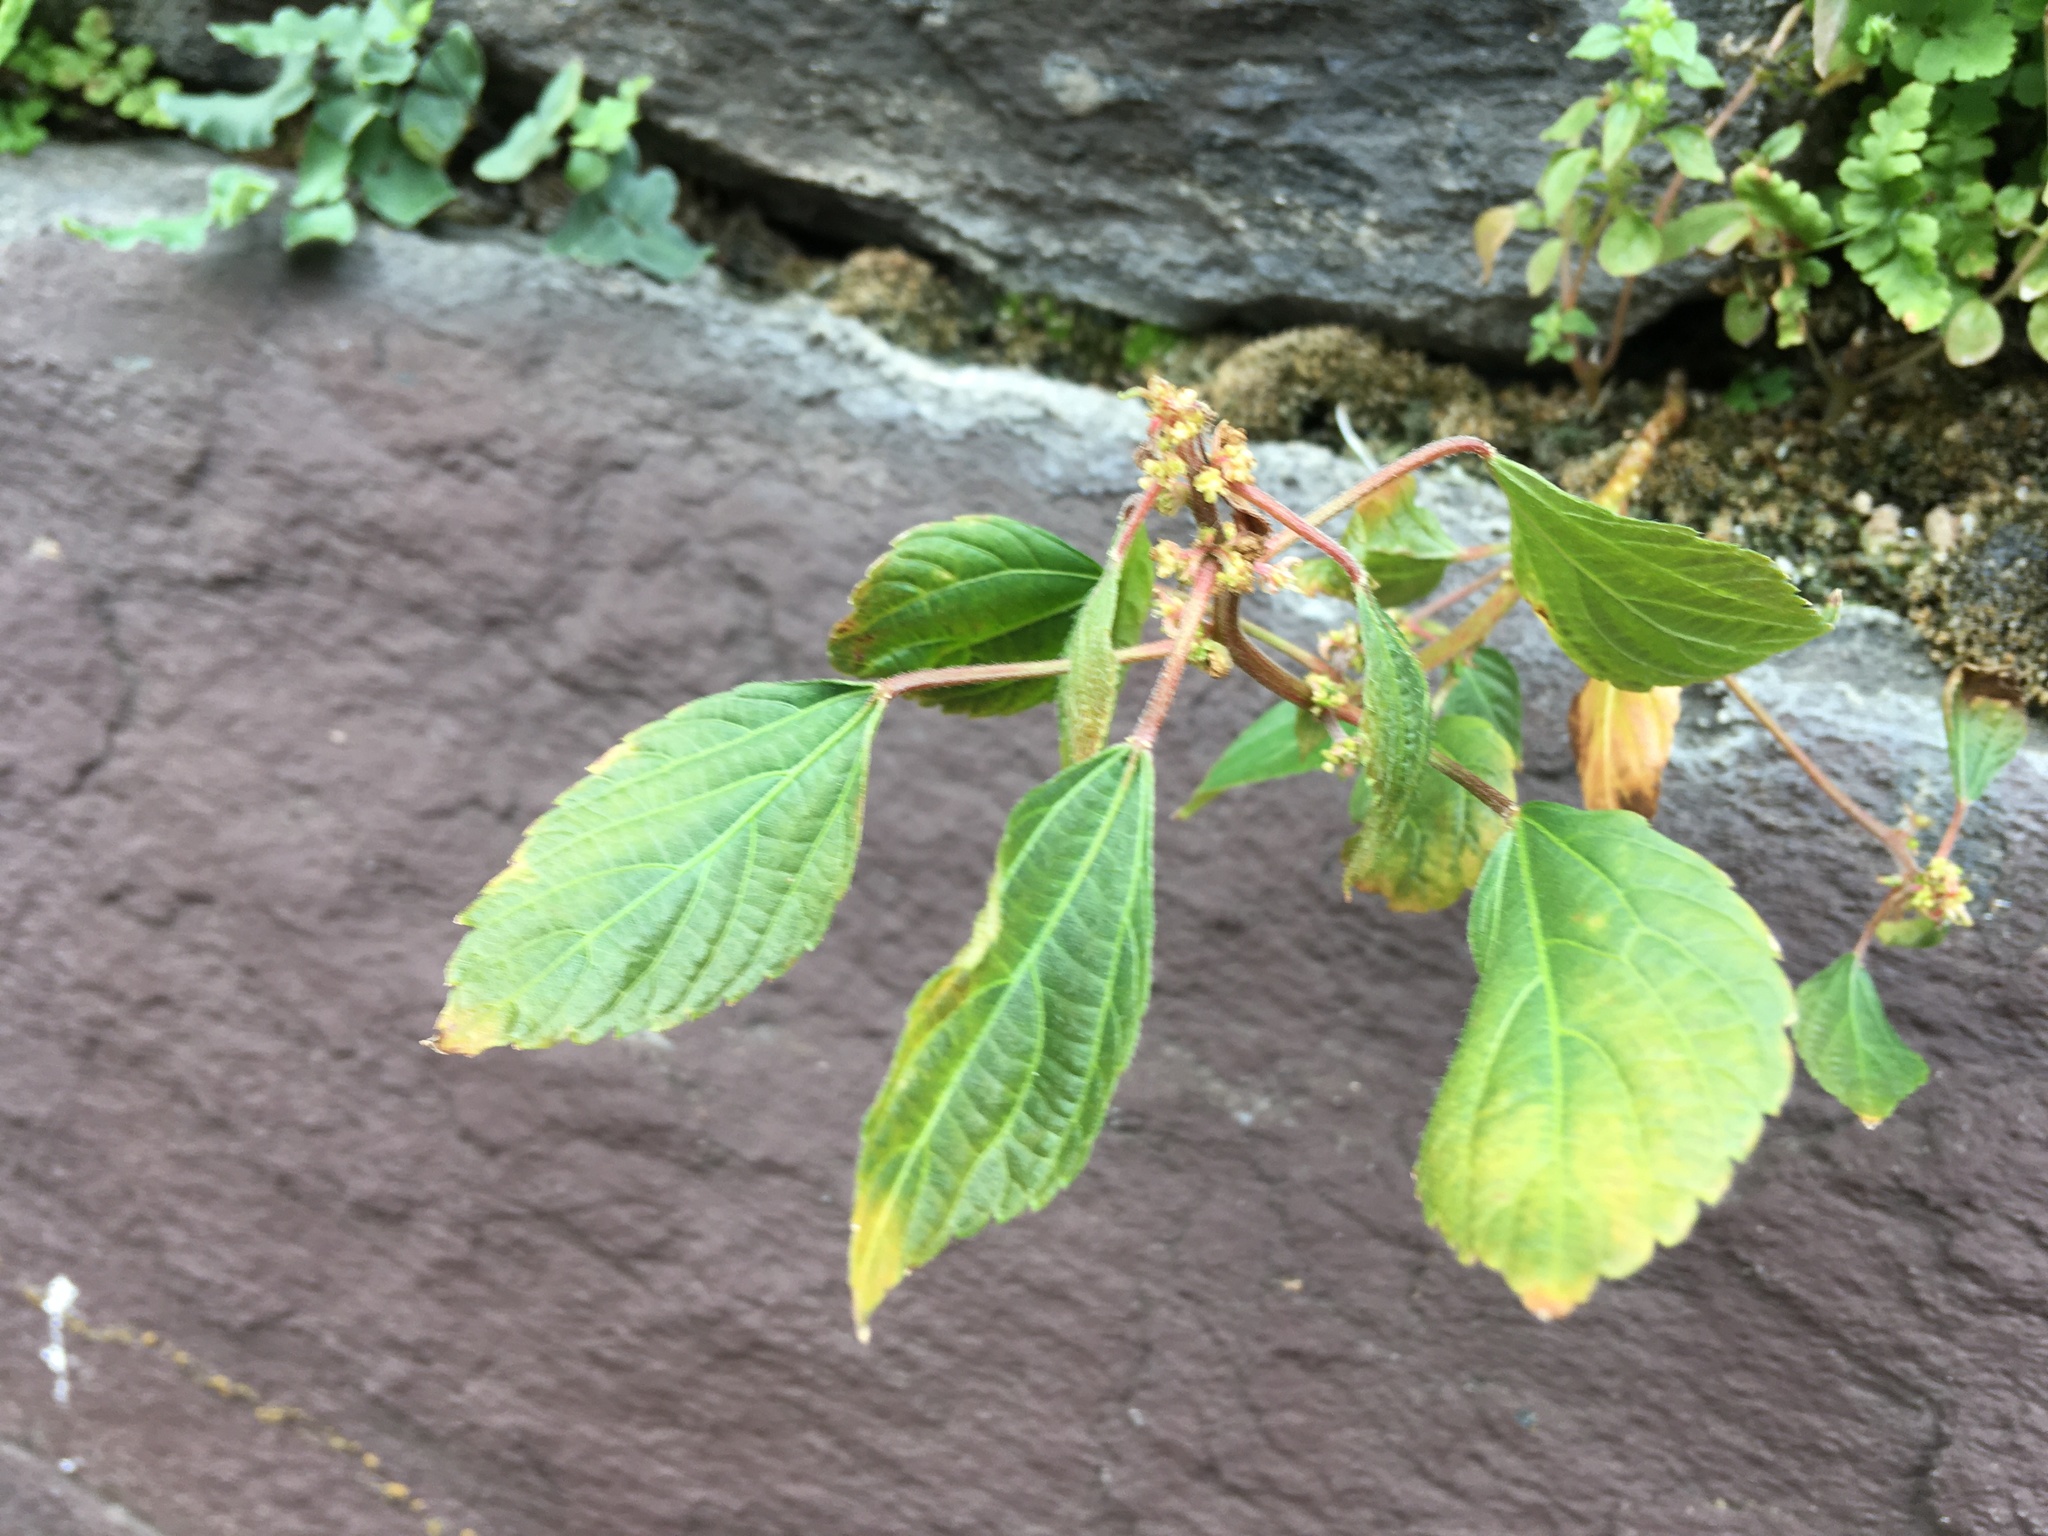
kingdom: Plantae
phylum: Tracheophyta
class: Magnoliopsida
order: Malpighiales
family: Euphorbiaceae
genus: Acalypha
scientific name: Acalypha australis
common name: Asian copperleaf
